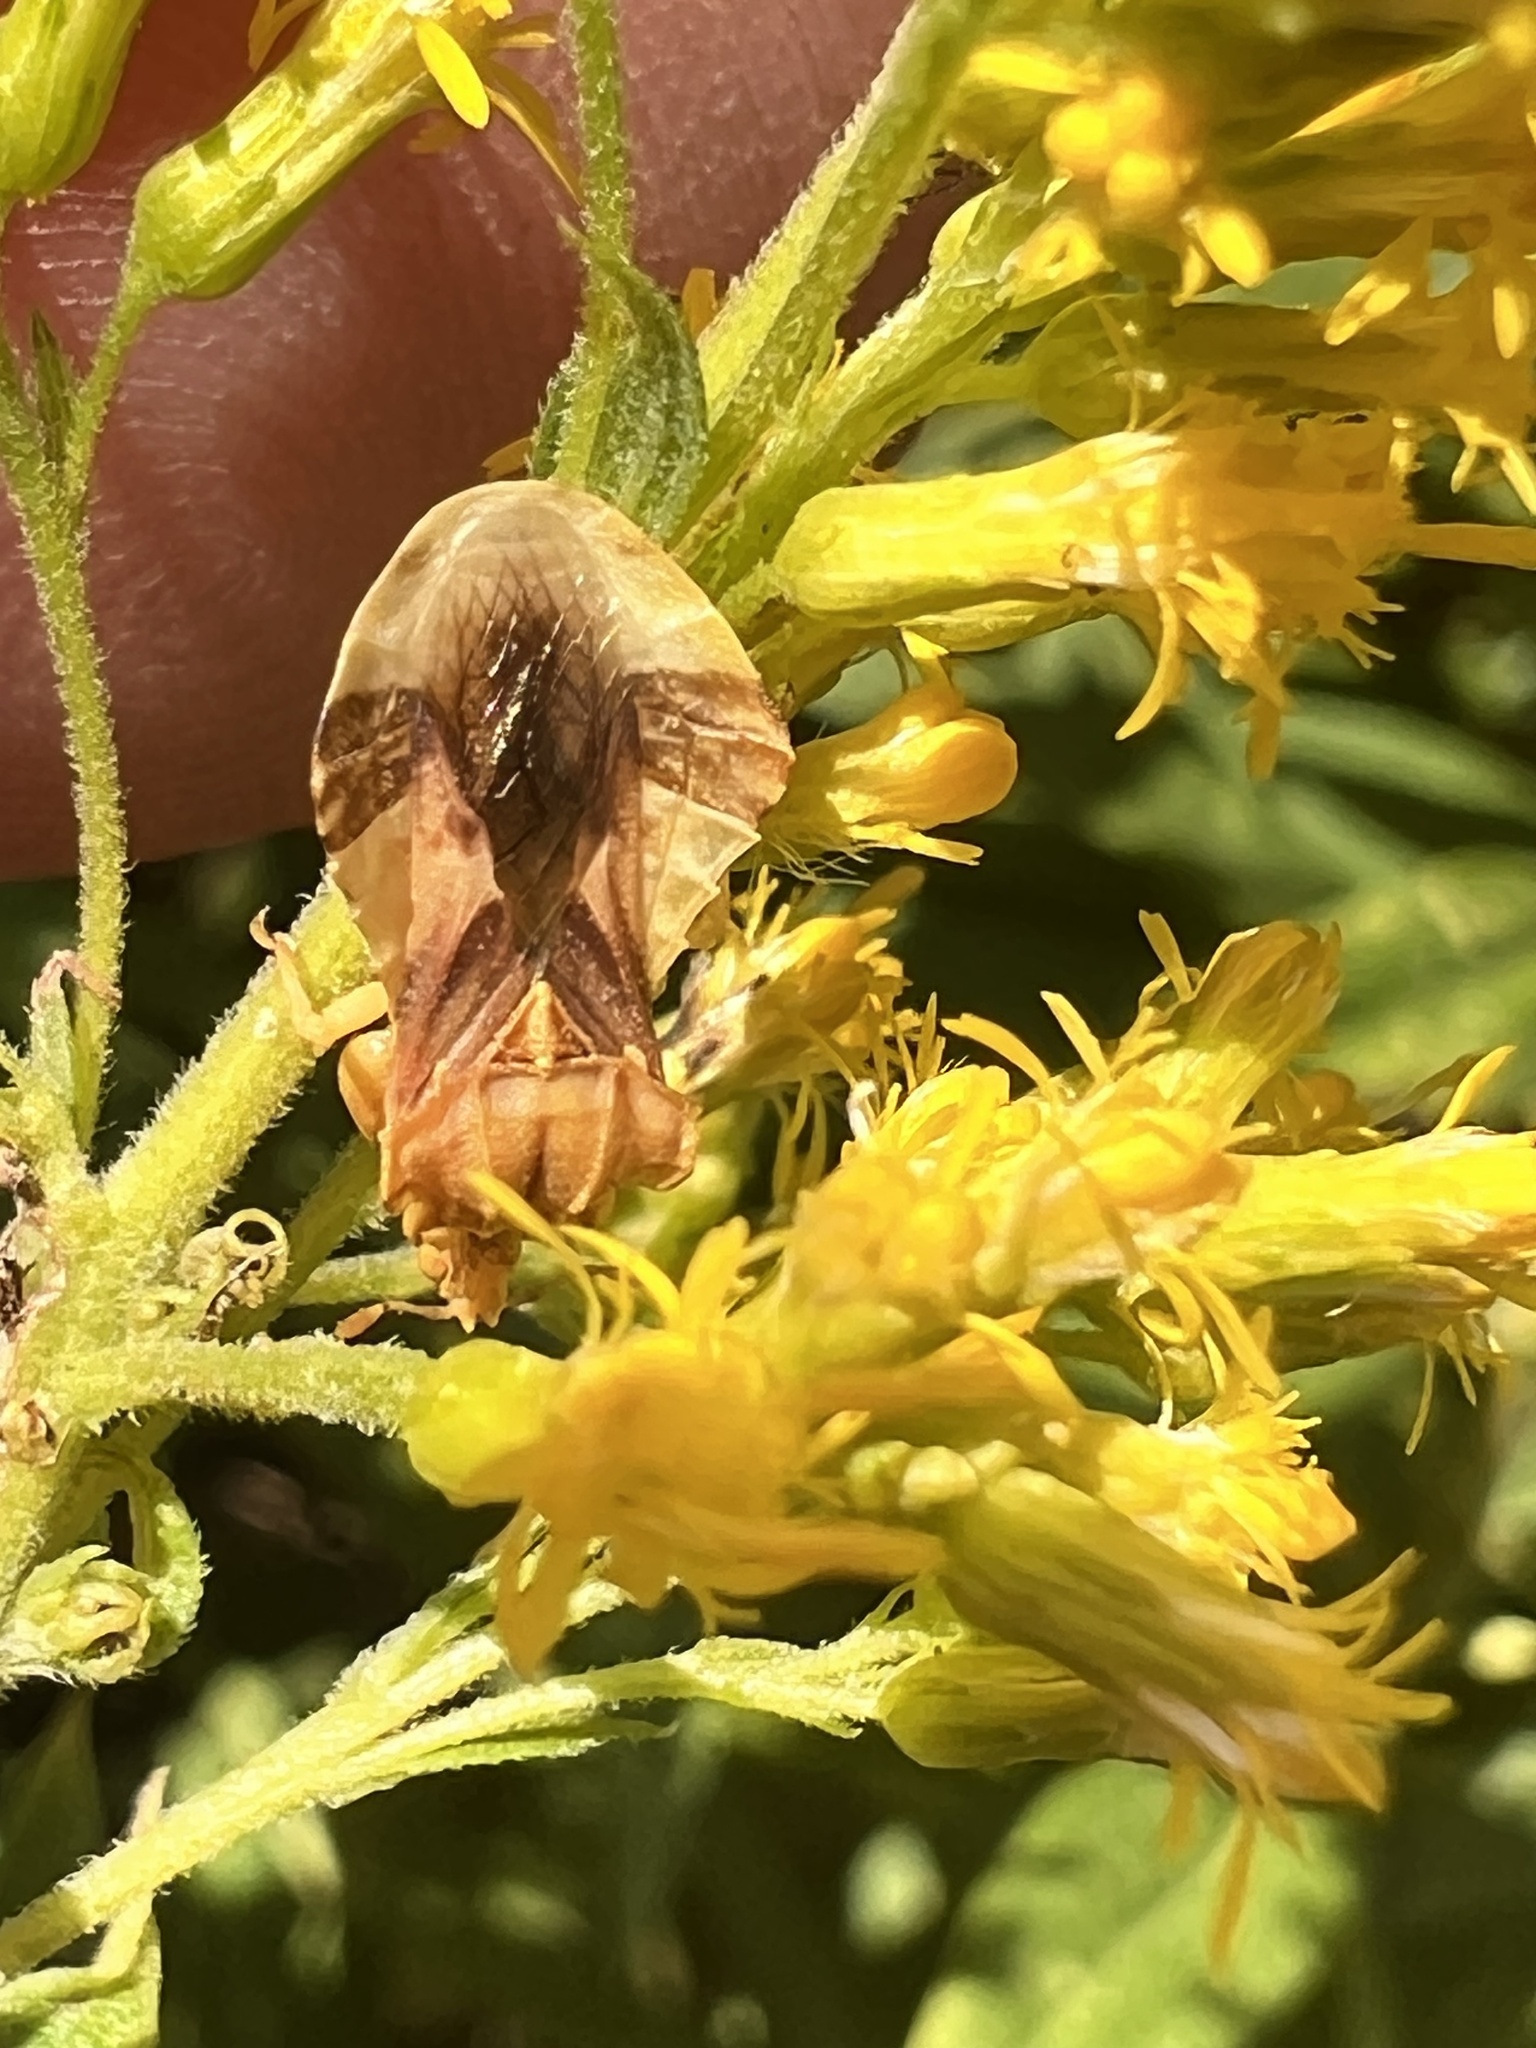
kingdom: Animalia
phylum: Arthropoda
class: Insecta
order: Hemiptera
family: Reduviidae
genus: Phymata
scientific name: Phymata fasciata
